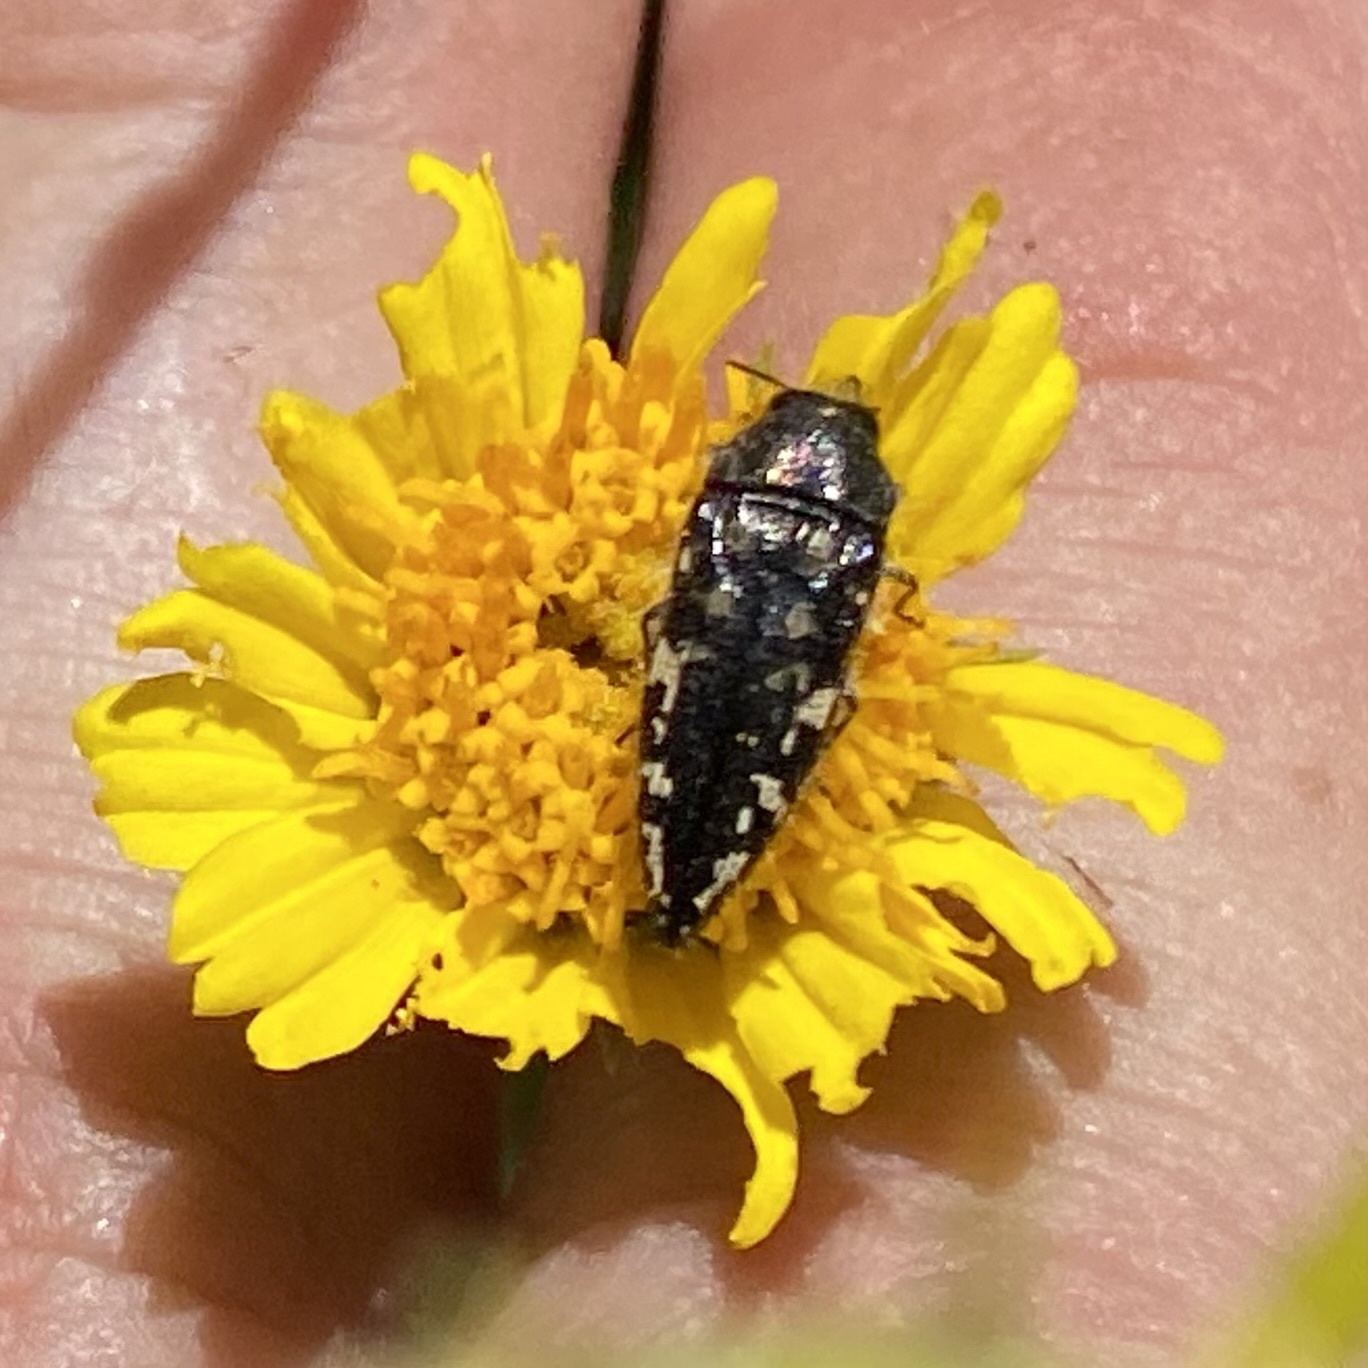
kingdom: Animalia
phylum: Arthropoda
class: Insecta
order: Coleoptera
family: Buprestidae
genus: Acmaeodera
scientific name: Acmaeodera cuneata
